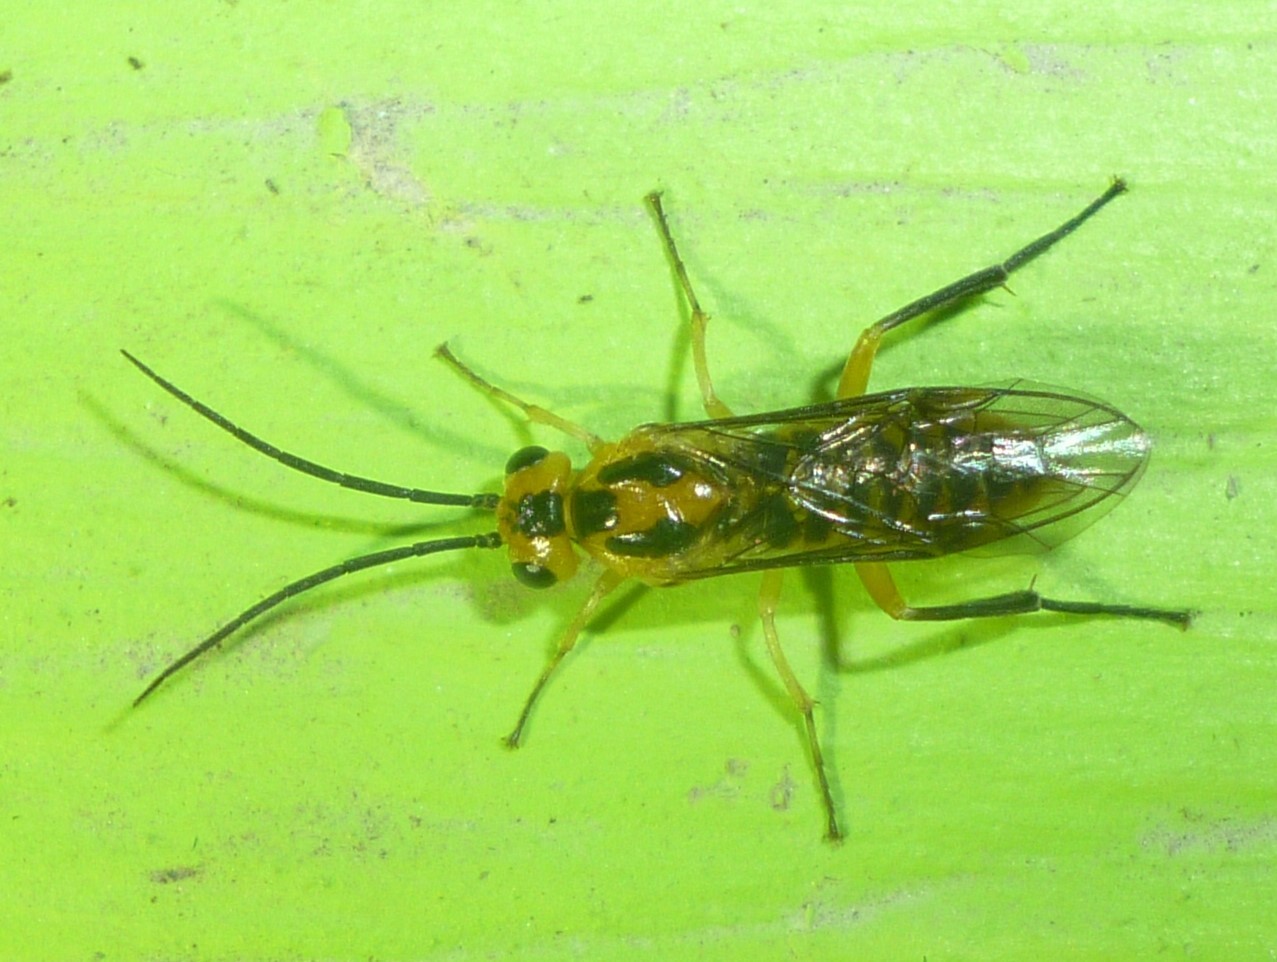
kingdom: Animalia
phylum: Arthropoda
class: Insecta
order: Hymenoptera
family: Tenthredinidae
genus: Euura
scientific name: Euura tibialis
